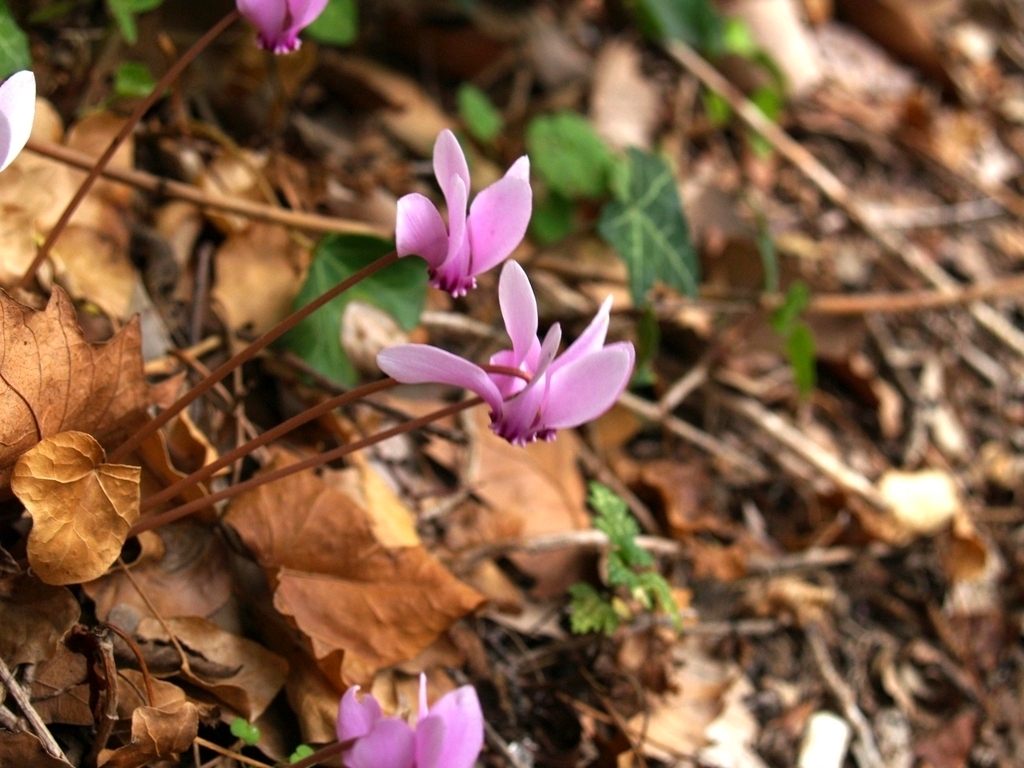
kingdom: Plantae
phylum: Tracheophyta
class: Magnoliopsida
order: Ericales
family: Primulaceae
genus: Cyclamen
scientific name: Cyclamen hederifolium
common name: Sowbread
